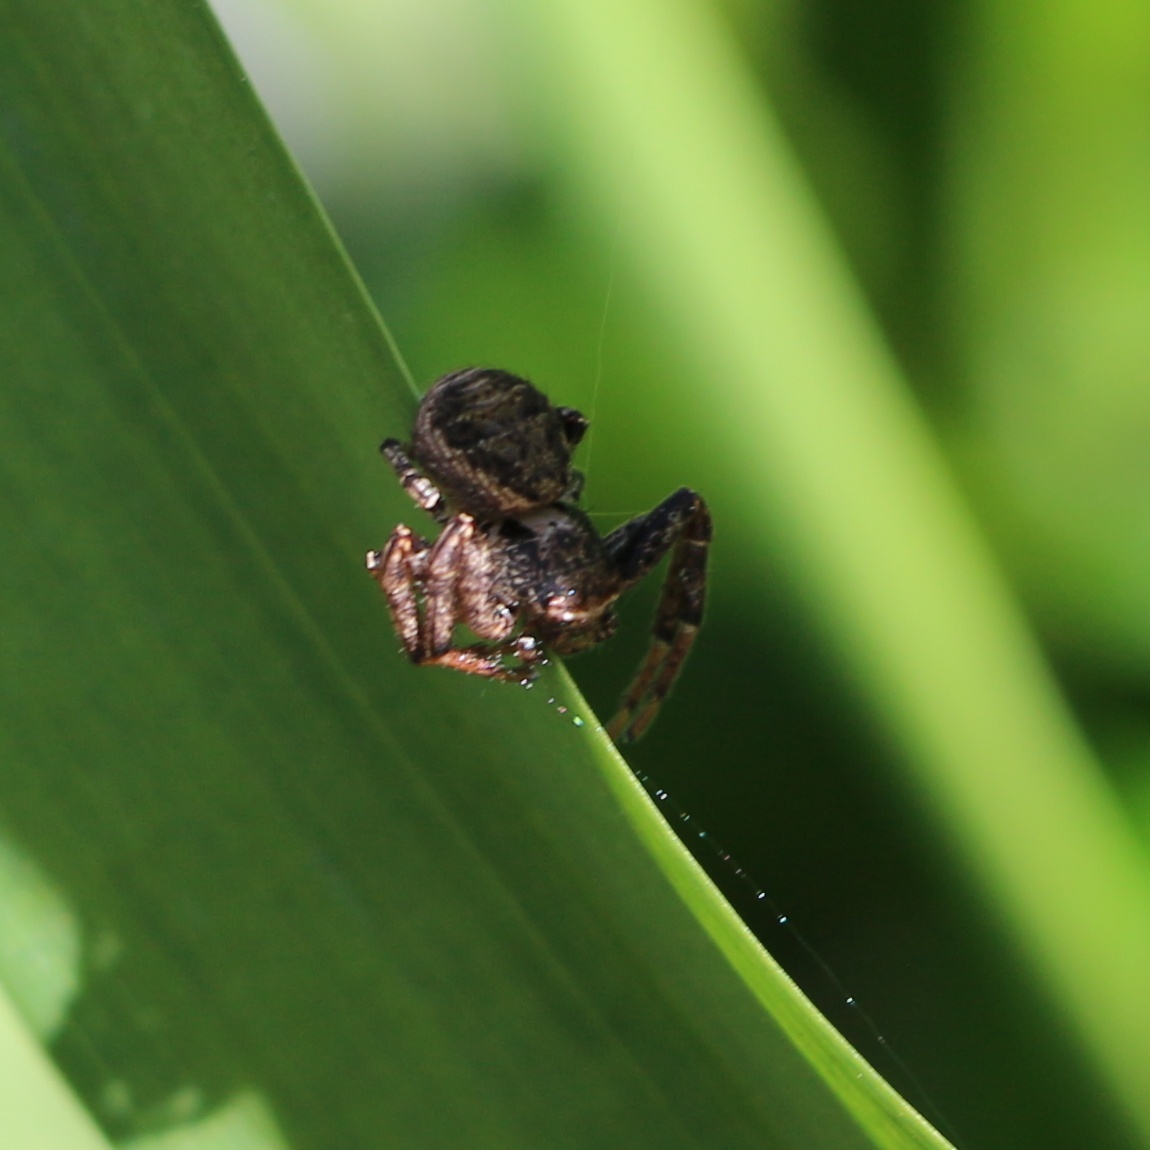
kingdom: Animalia
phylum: Arthropoda
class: Arachnida
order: Araneae
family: Thomisidae
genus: Xysticus
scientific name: Xysticus
